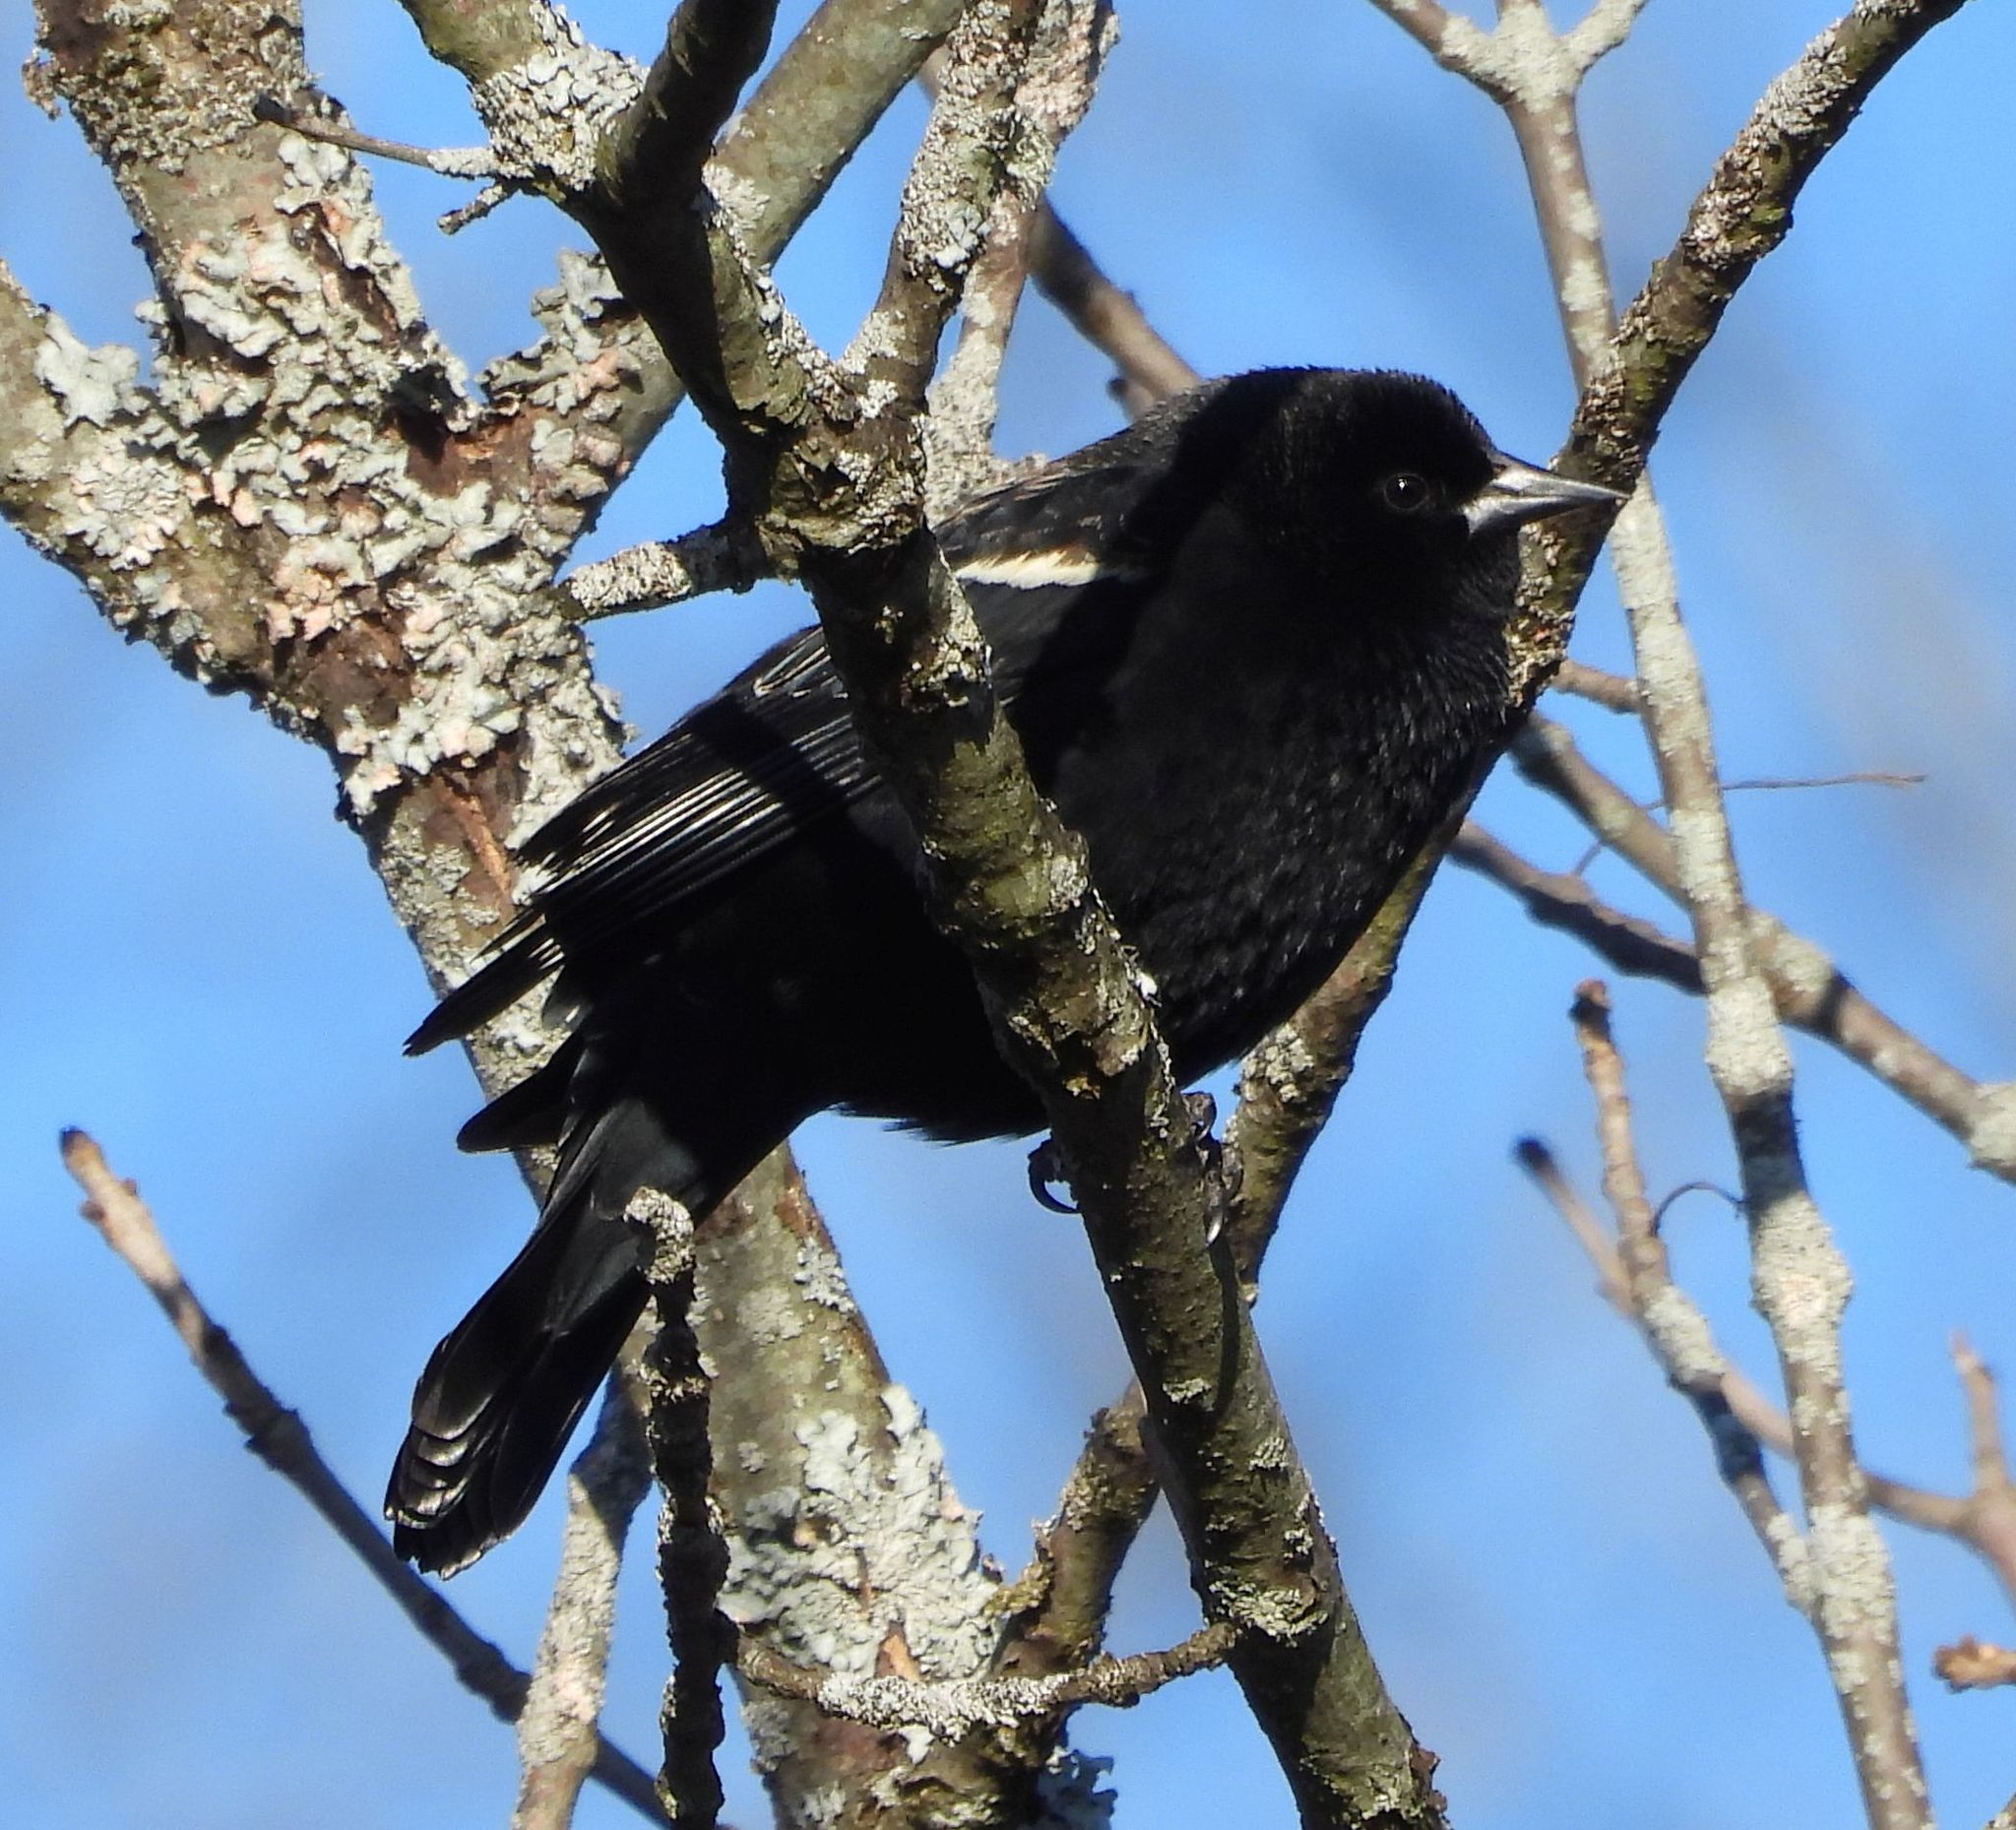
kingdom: Animalia
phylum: Chordata
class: Aves
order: Passeriformes
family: Icteridae
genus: Agelaius
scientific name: Agelaius phoeniceus
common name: Red-winged blackbird
